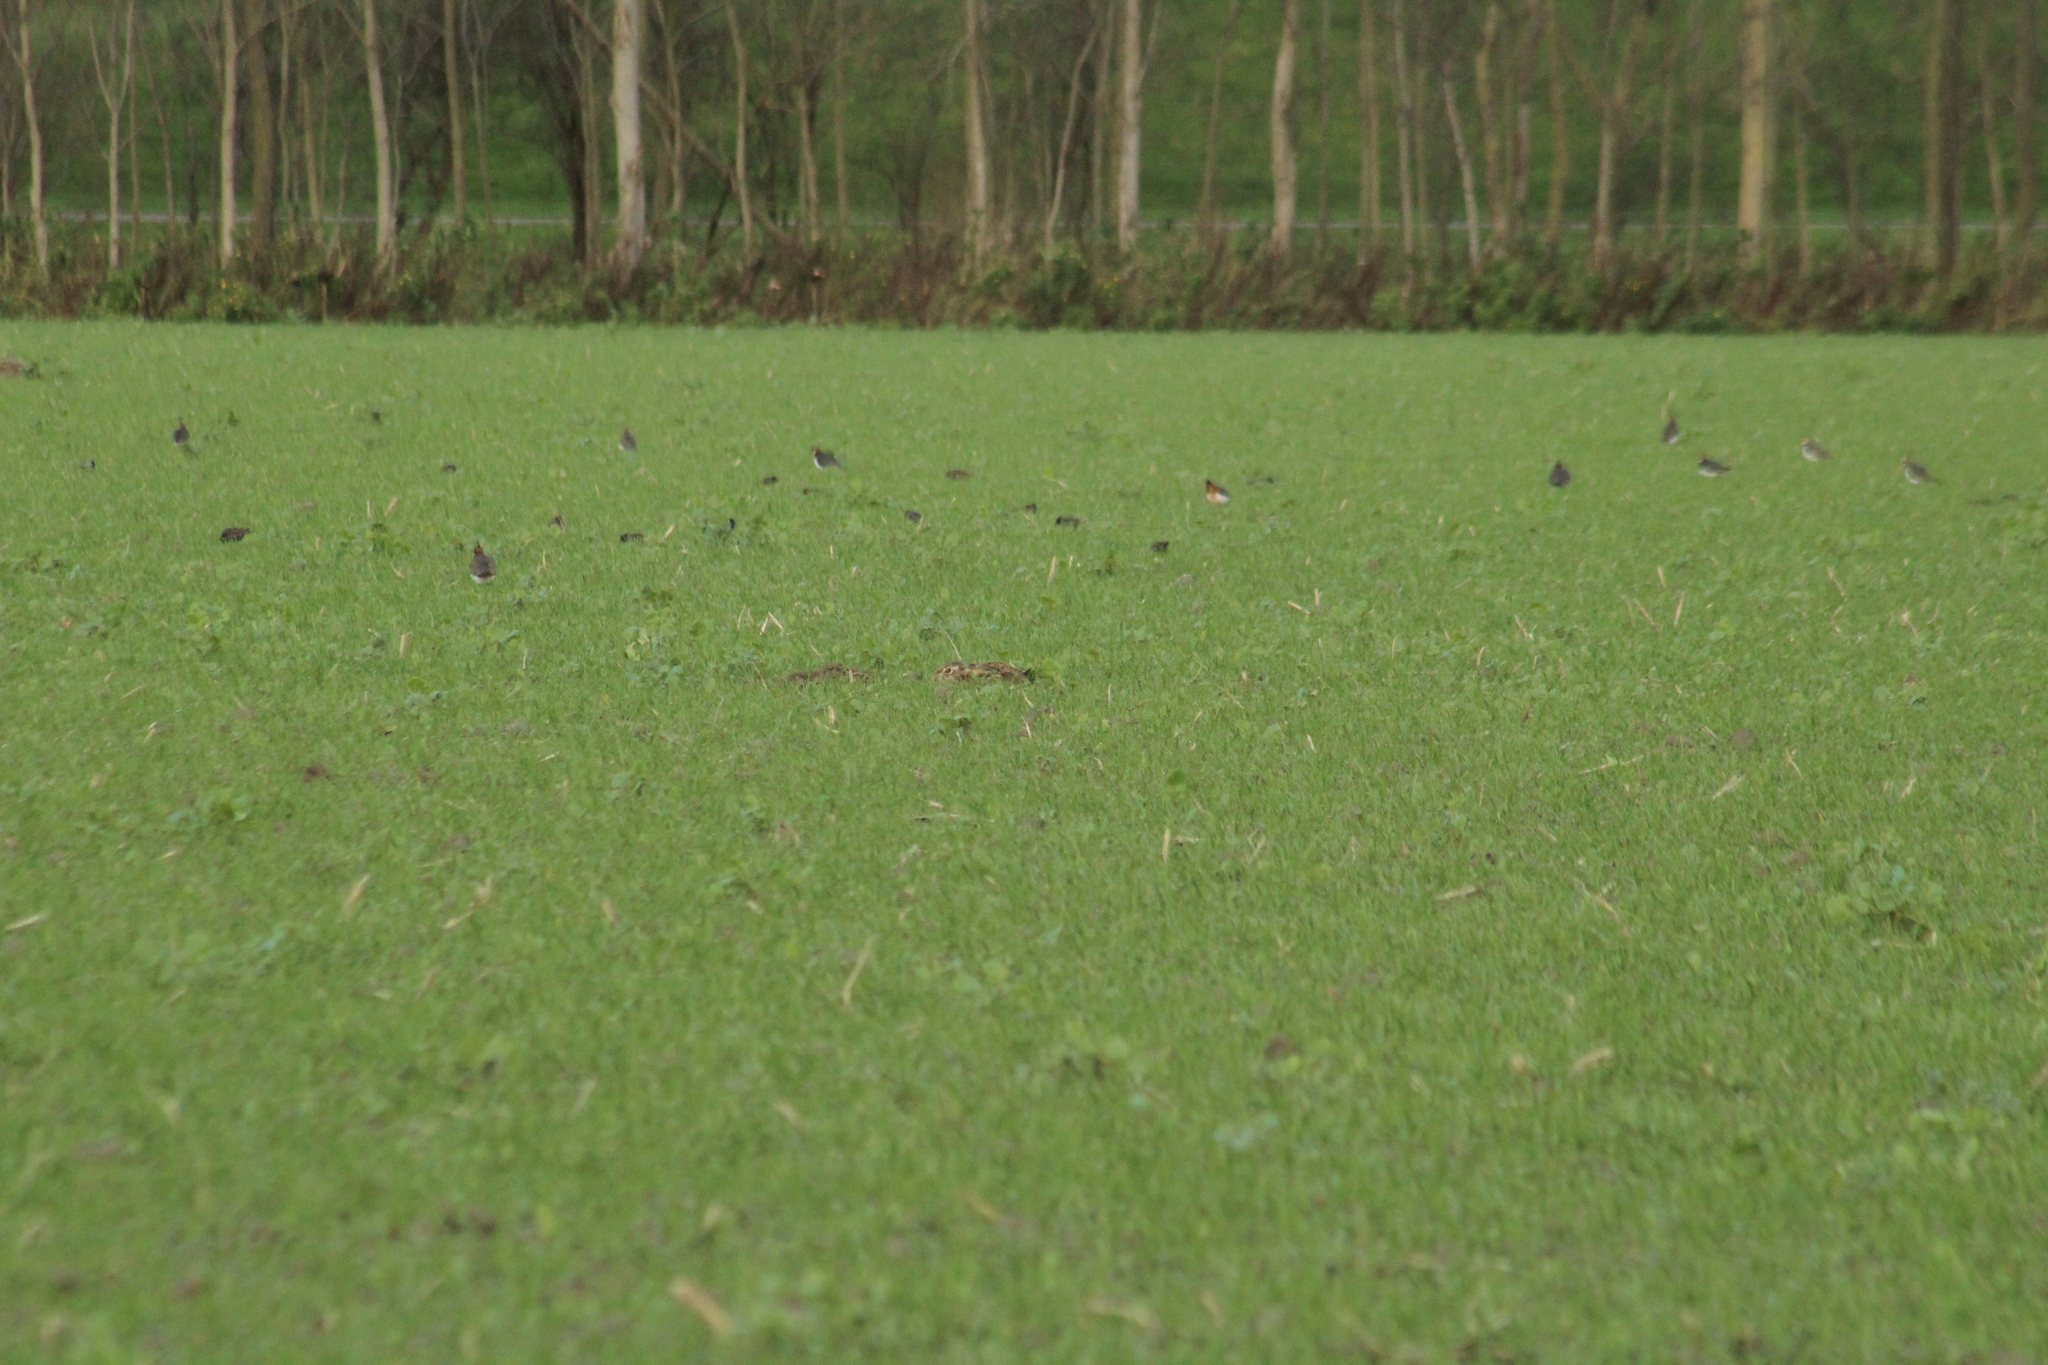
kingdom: Animalia
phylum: Chordata
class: Mammalia
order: Lagomorpha
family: Leporidae
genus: Lepus
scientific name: Lepus europaeus
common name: European hare
